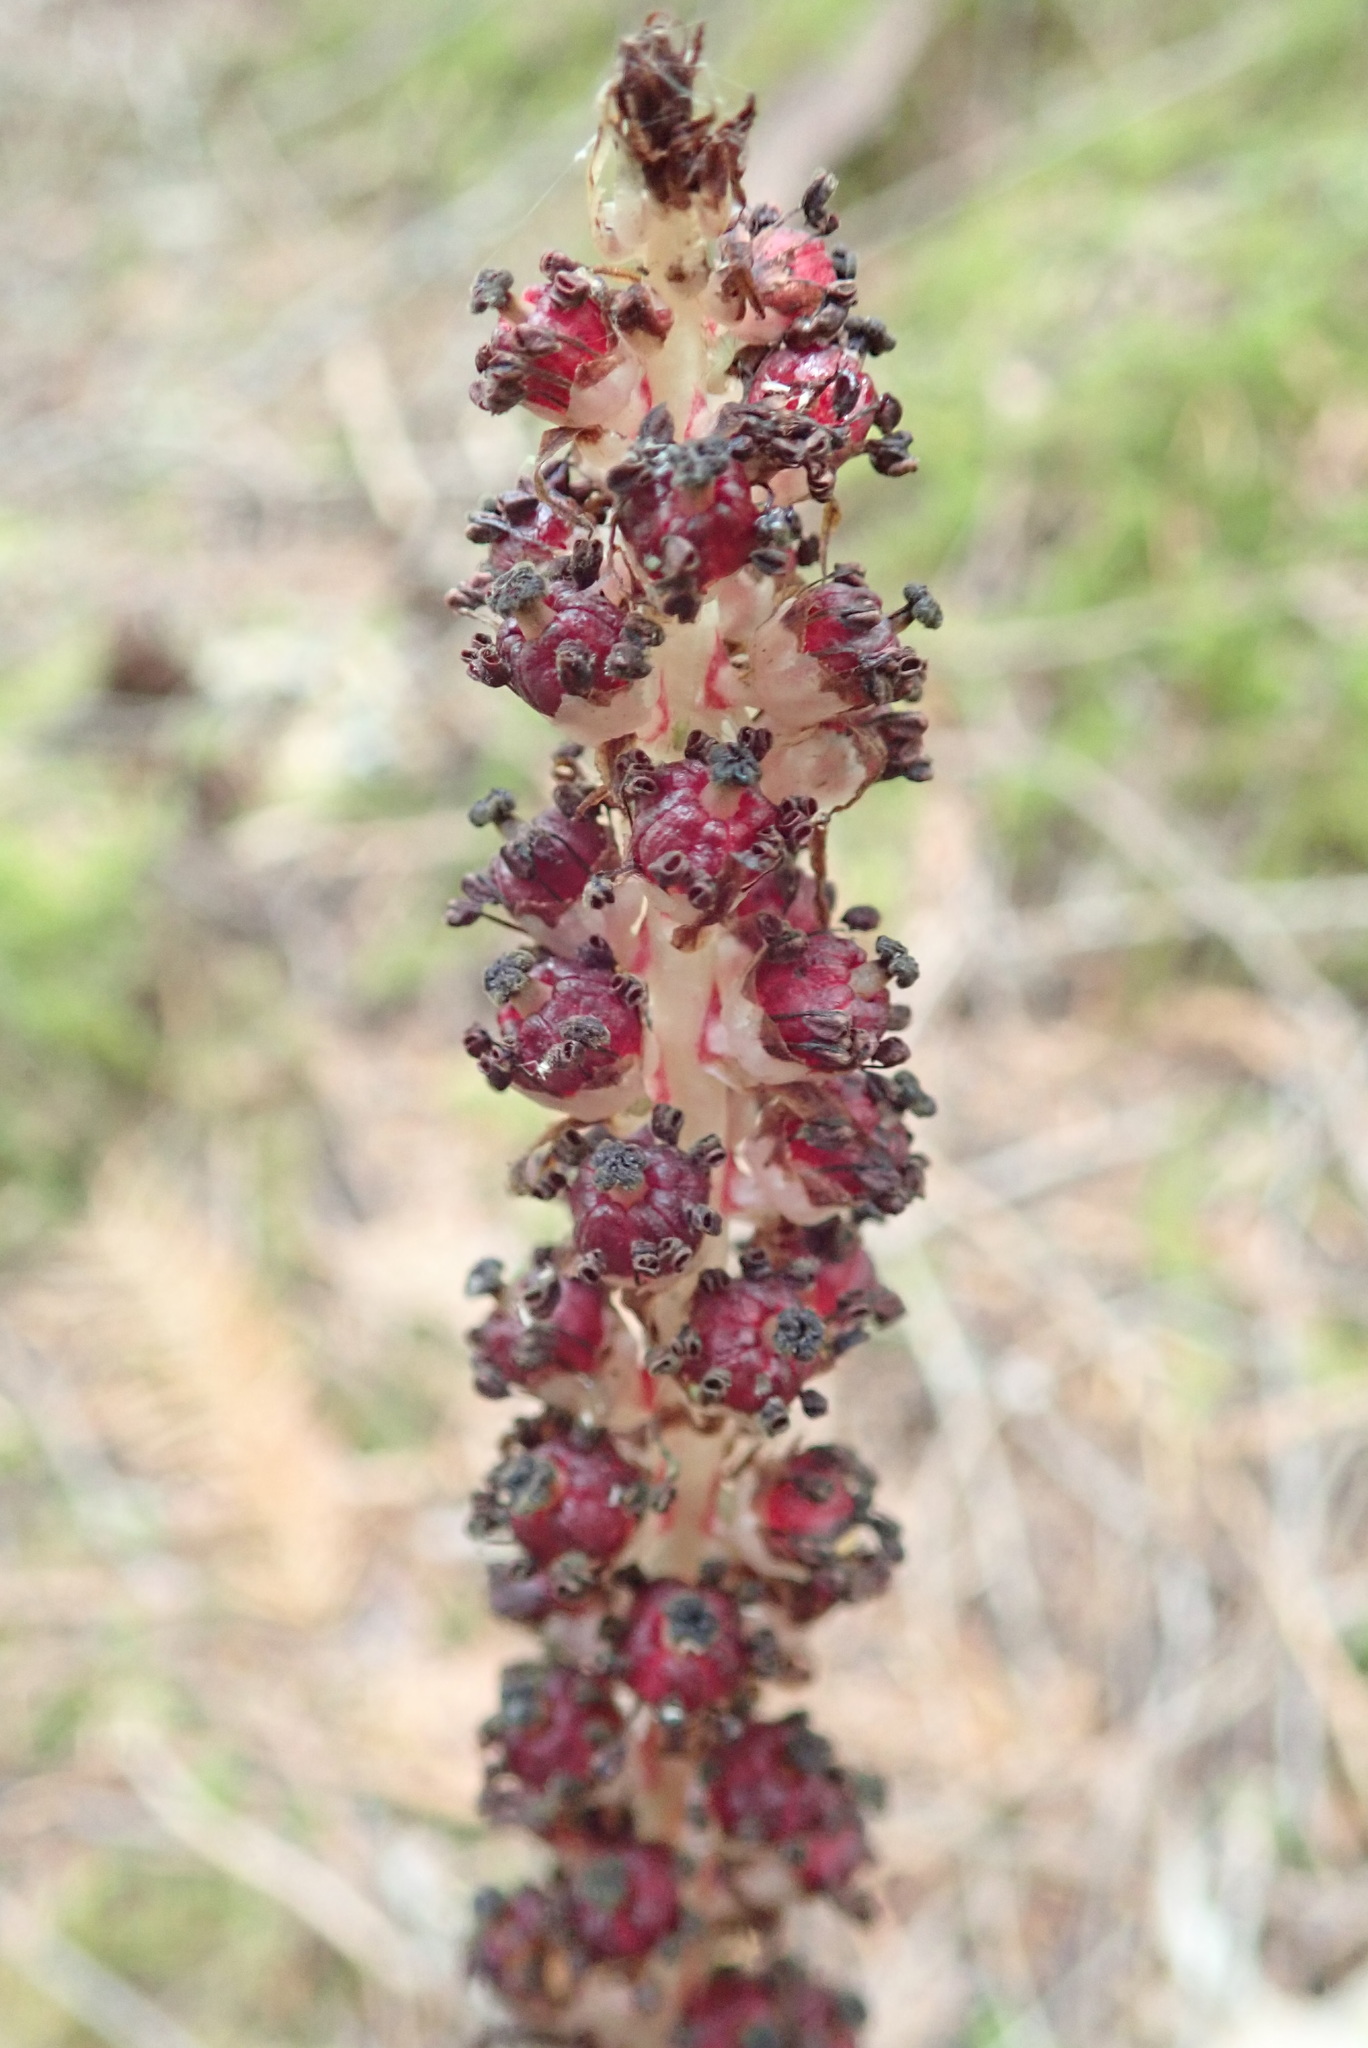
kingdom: Plantae
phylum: Tracheophyta
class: Magnoliopsida
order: Ericales
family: Ericaceae
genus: Allotropa
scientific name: Allotropa virgata
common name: Candy-striped allotropa
